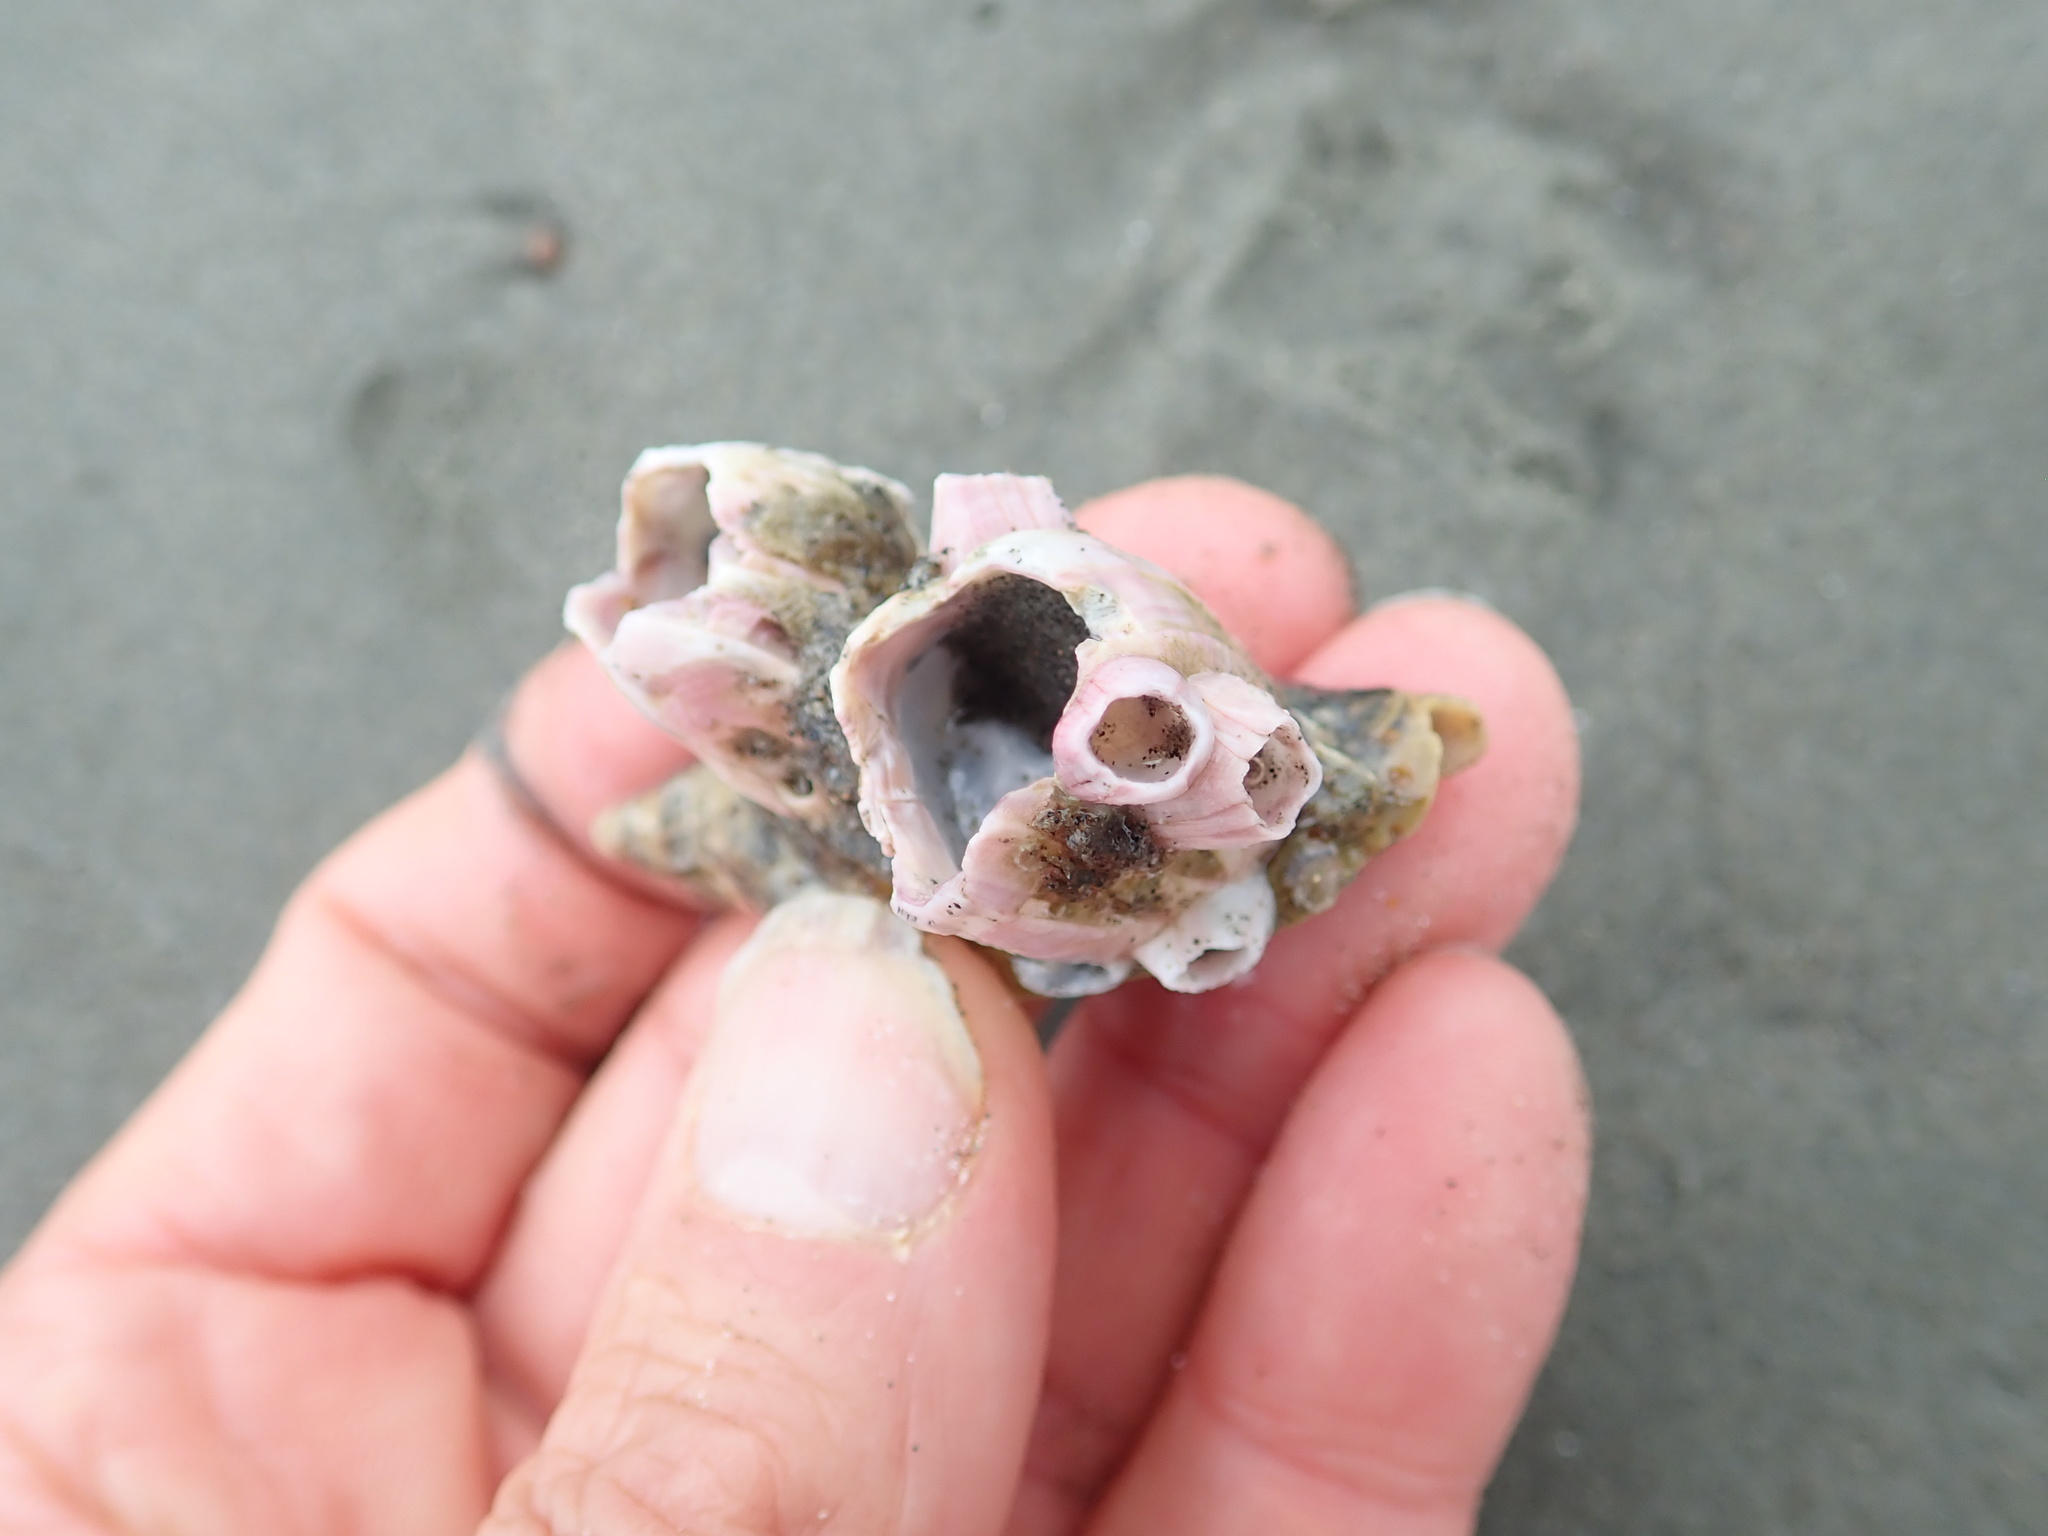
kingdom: Animalia
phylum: Arthropoda
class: Maxillopoda
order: Sessilia
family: Balanidae
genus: Notomegabalanus
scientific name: Notomegabalanus decorus
